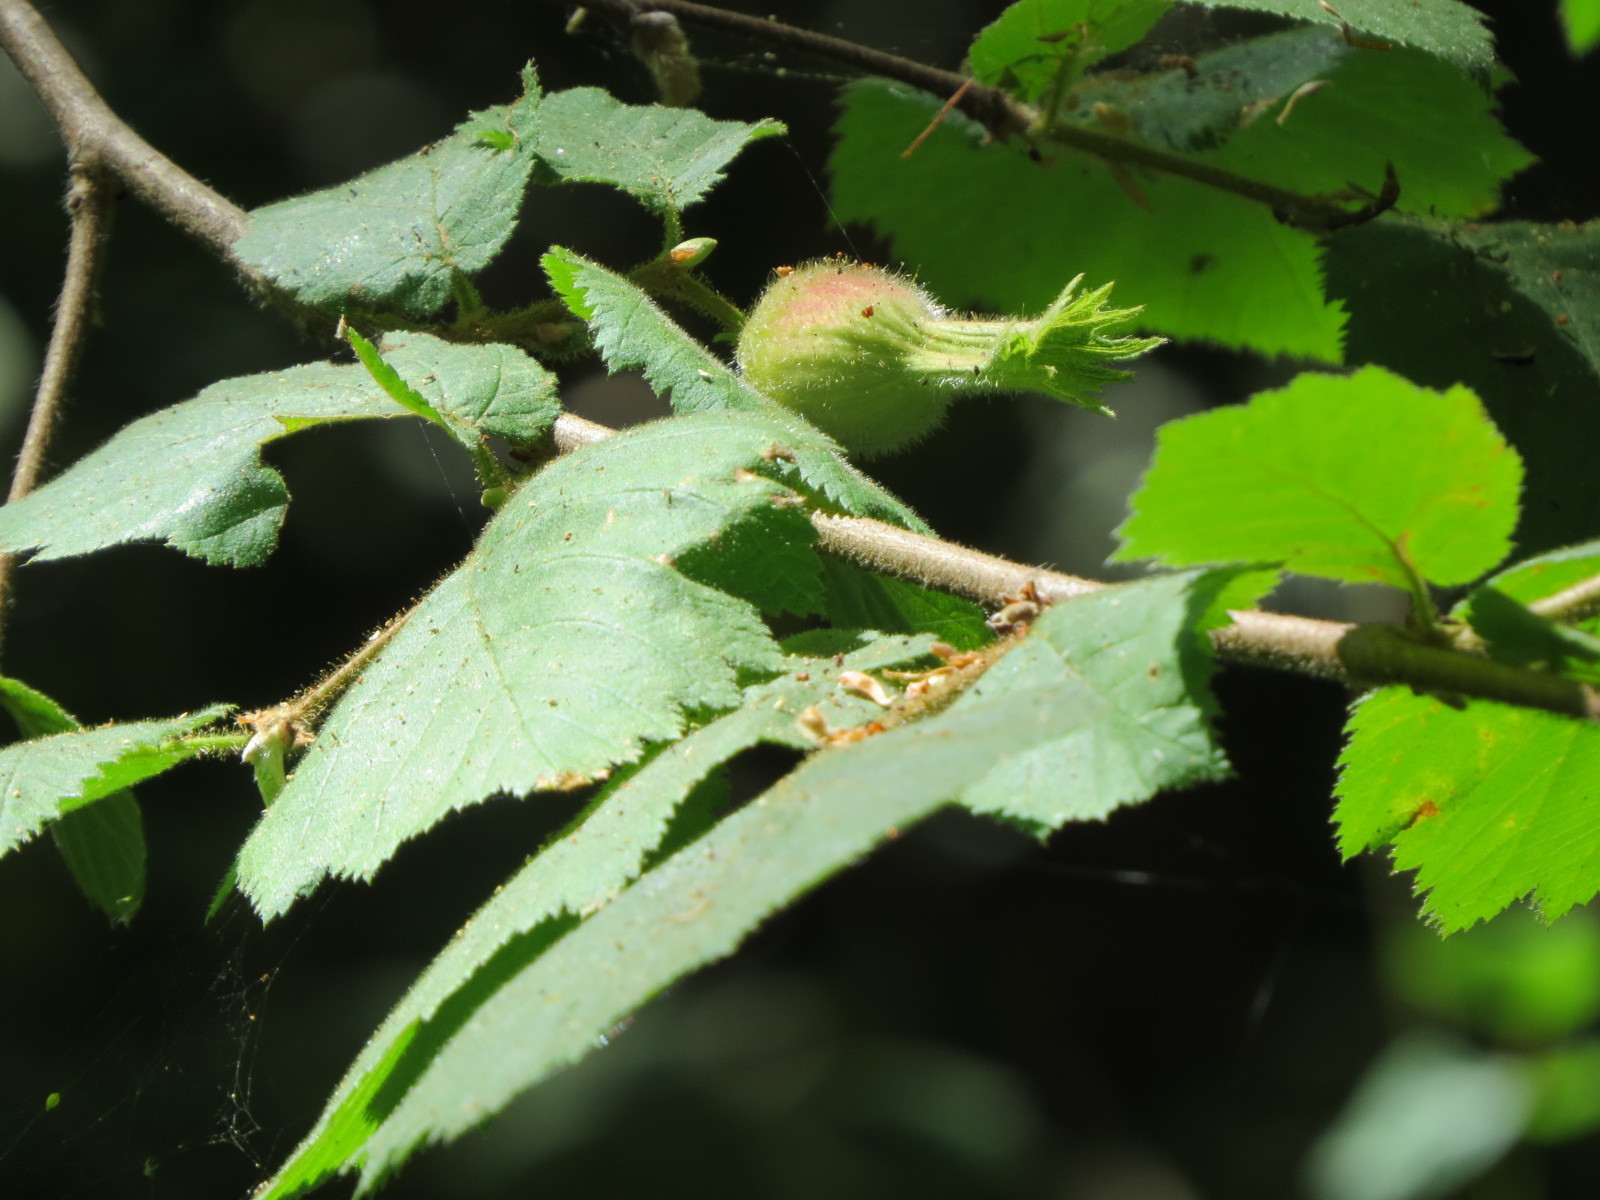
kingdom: Plantae
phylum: Tracheophyta
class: Magnoliopsida
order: Fagales
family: Betulaceae
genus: Corylus
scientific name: Corylus cornuta
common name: Beaked hazel
